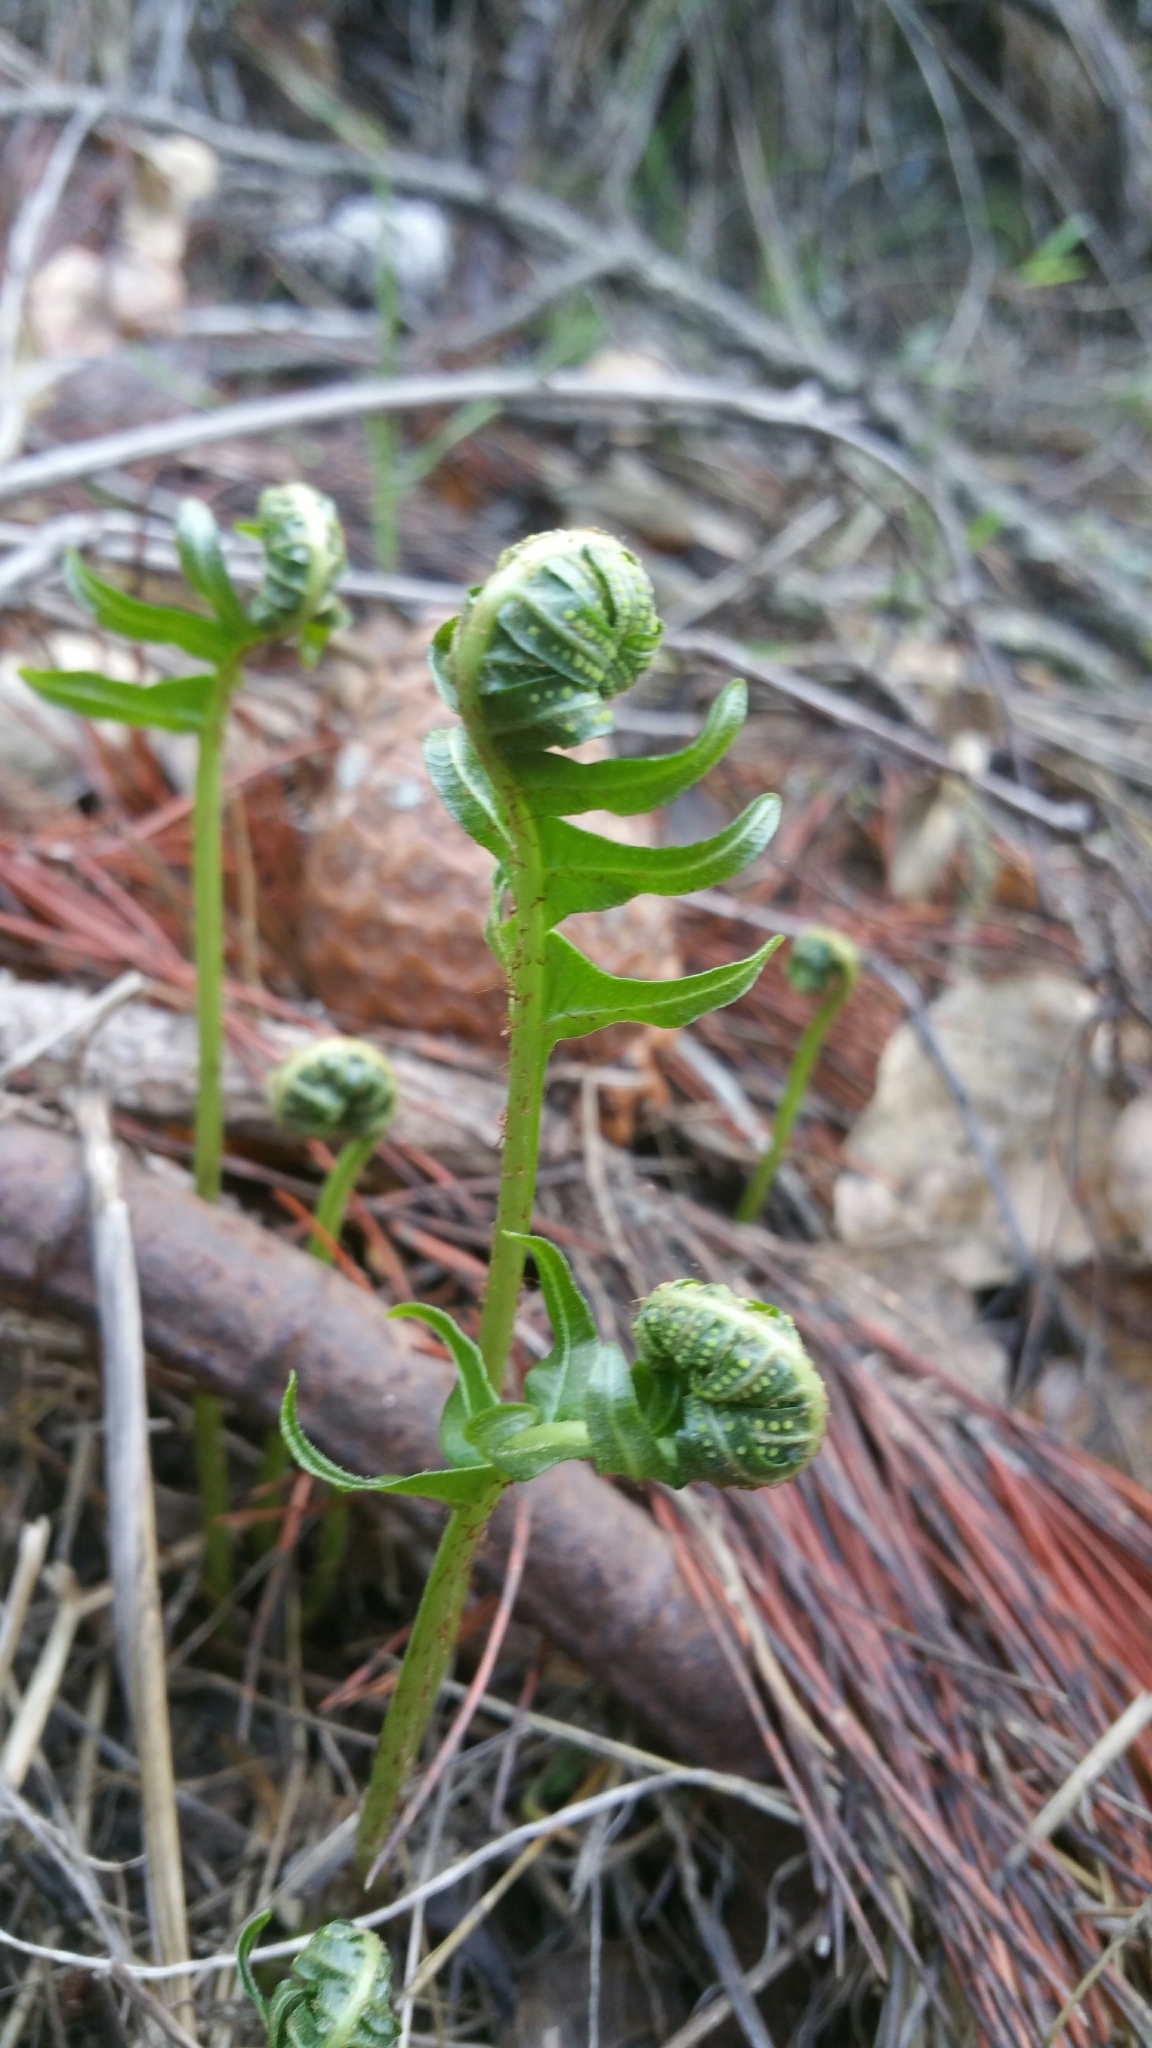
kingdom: Plantae
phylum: Tracheophyta
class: Polypodiopsida
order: Polypodiales
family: Polypodiaceae
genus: Polypodium
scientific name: Polypodium californicum
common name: California polypody
